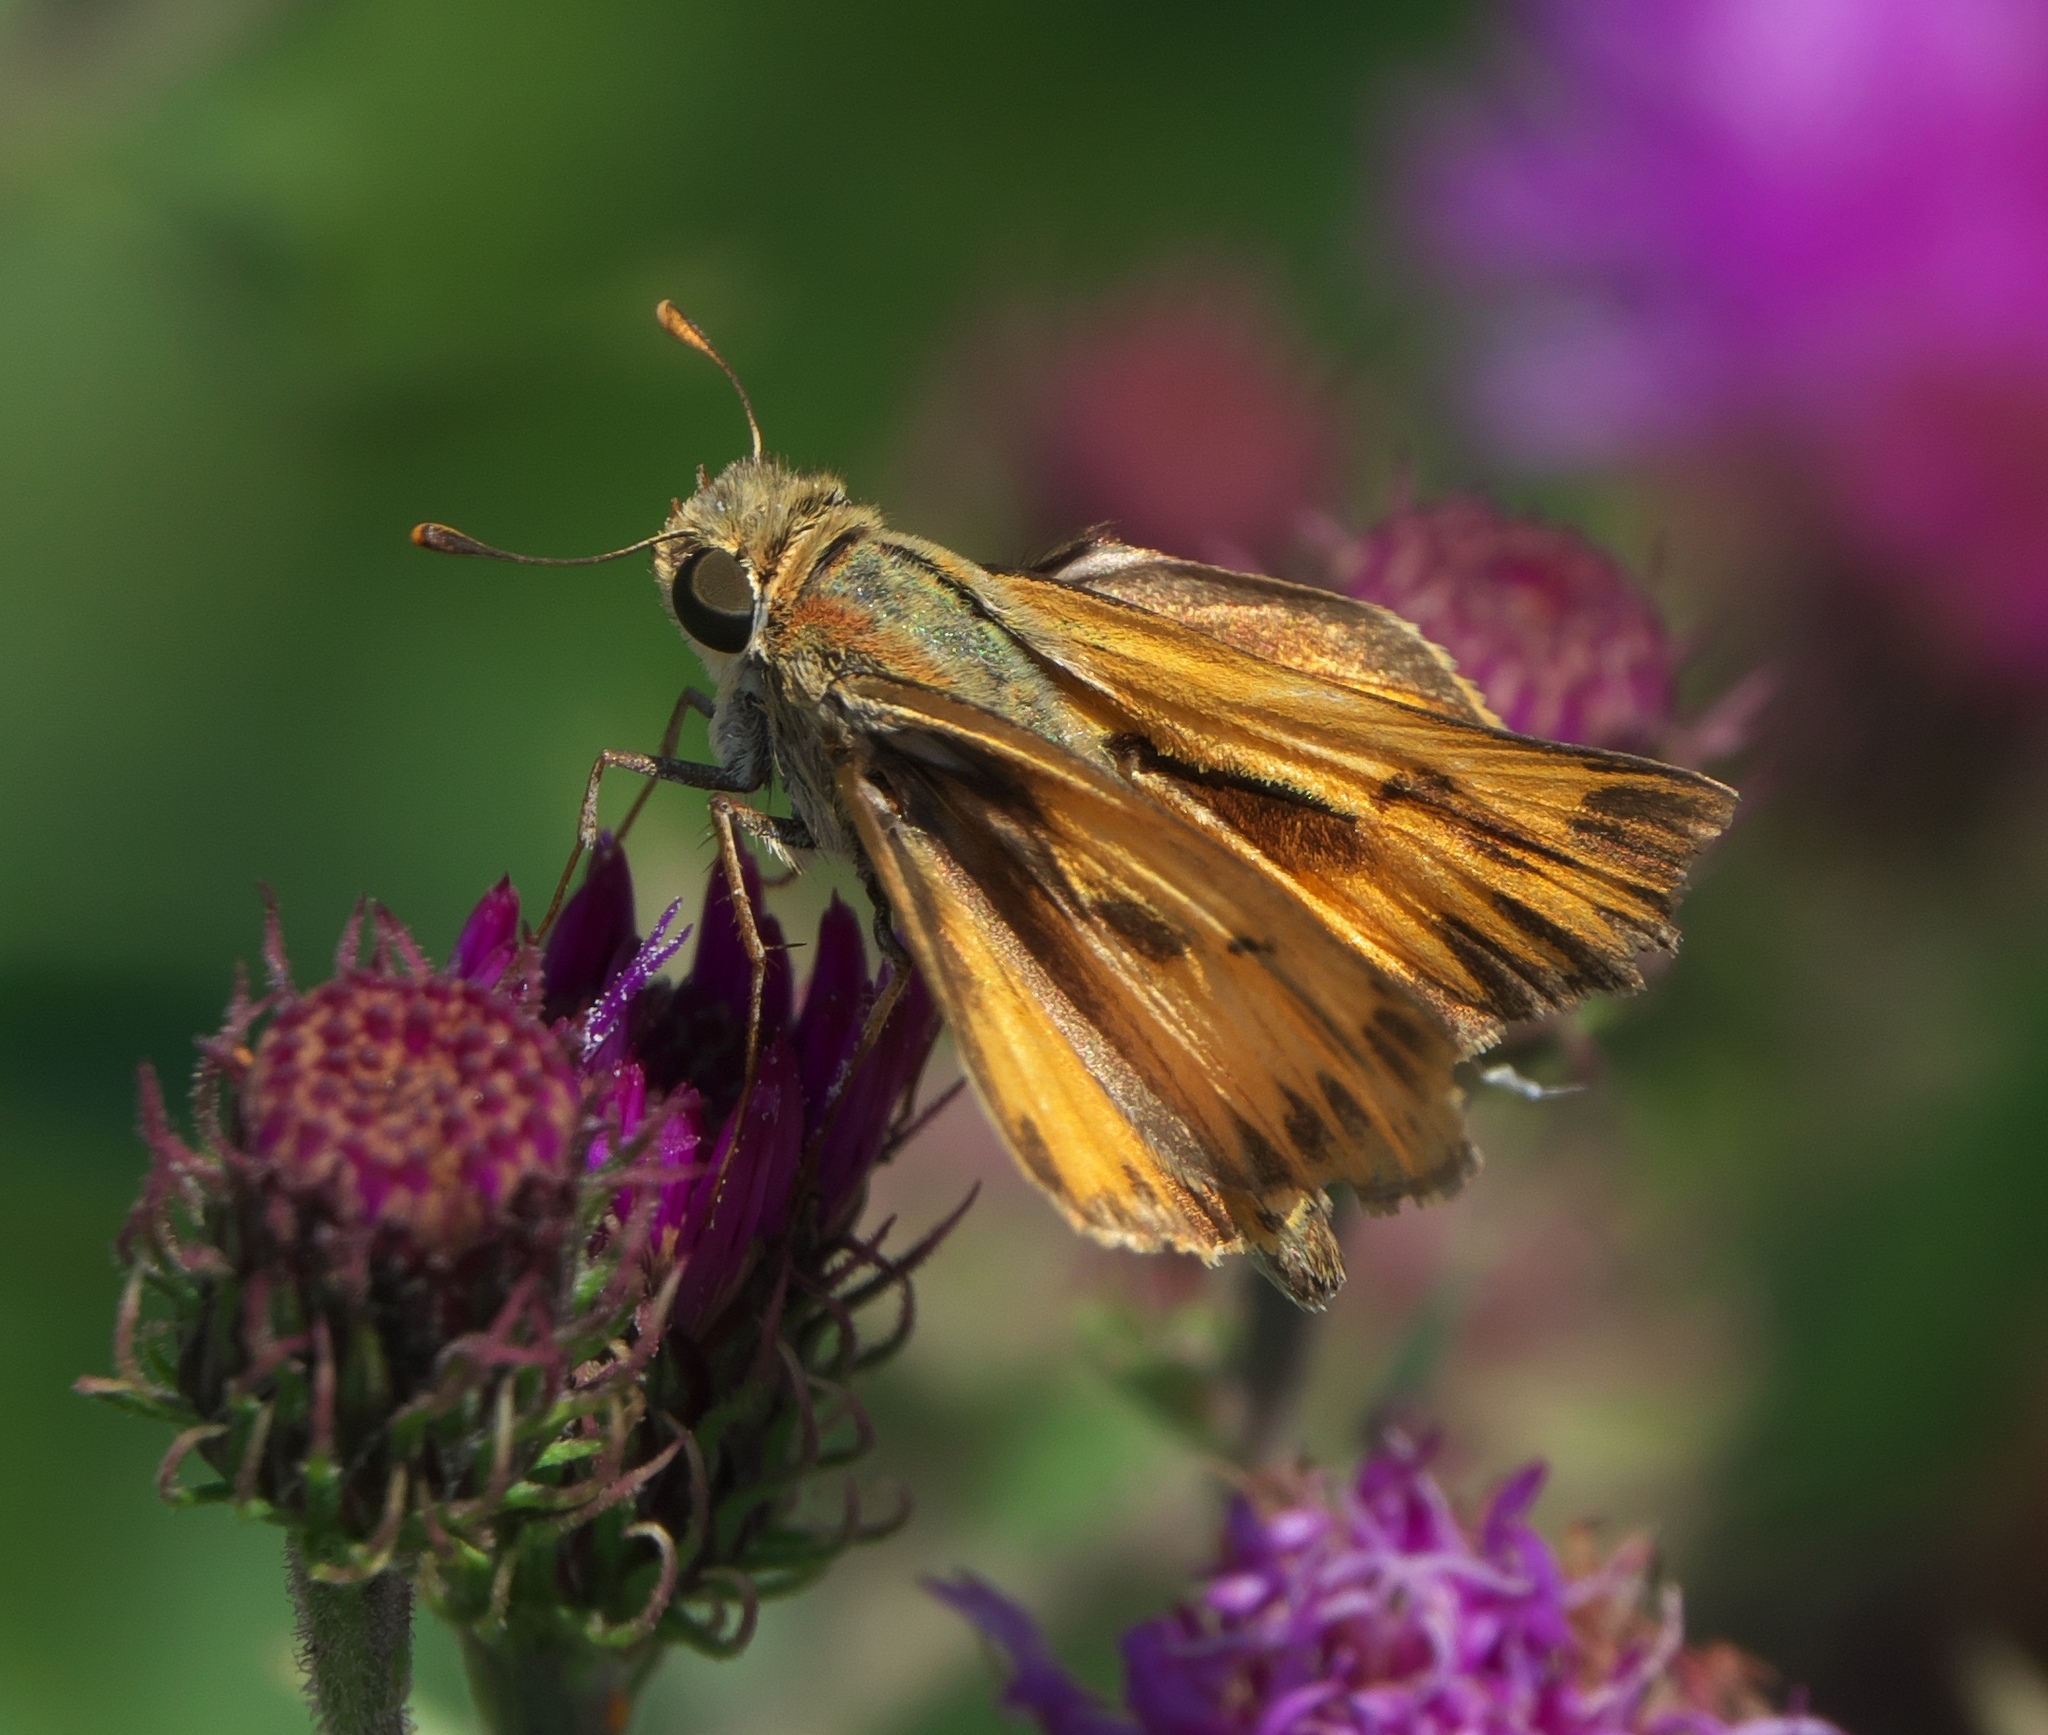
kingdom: Animalia
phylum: Arthropoda
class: Insecta
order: Lepidoptera
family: Hesperiidae
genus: Hylephila
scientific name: Hylephila phyleus
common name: Fiery skipper
